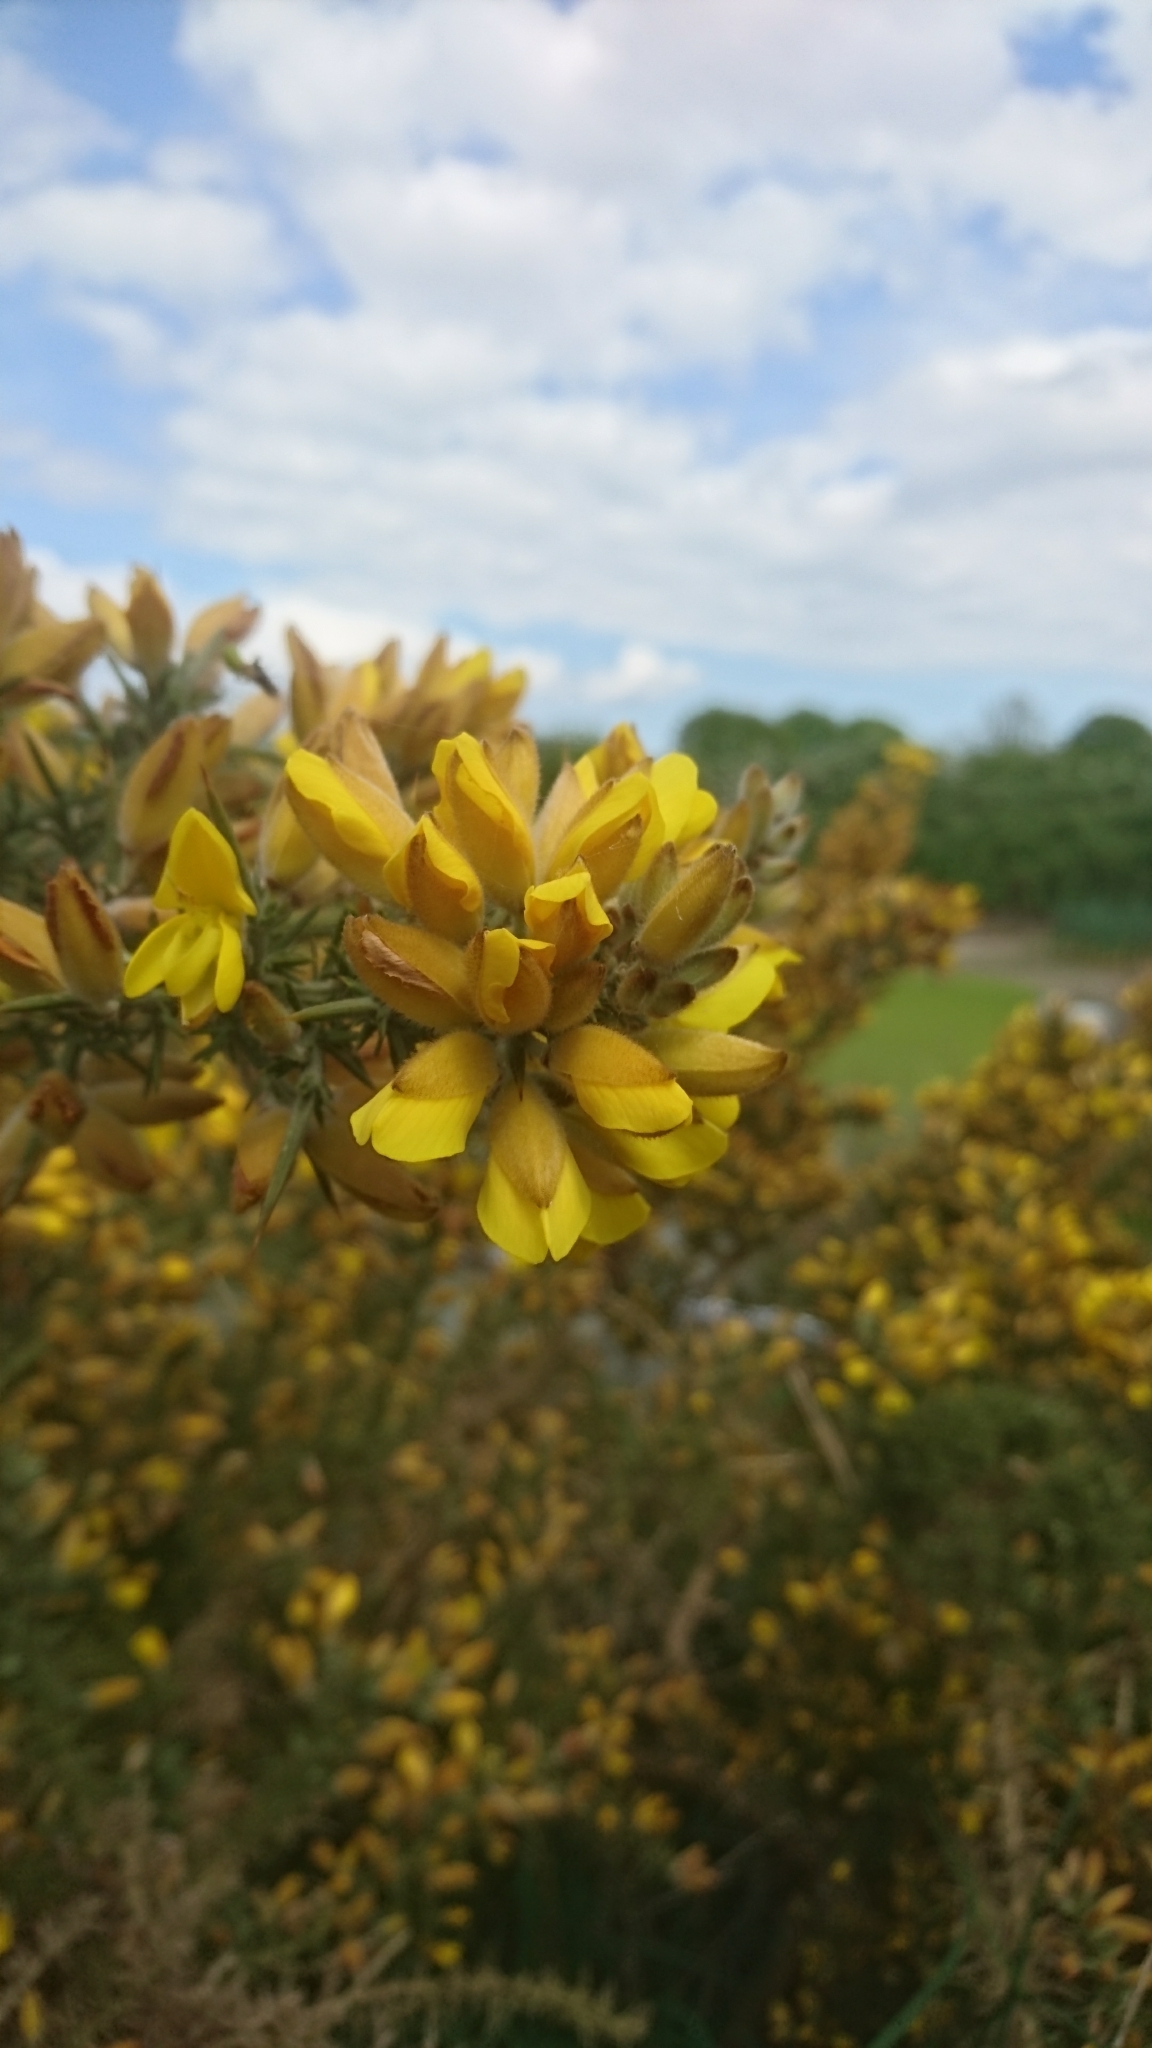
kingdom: Plantae
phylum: Tracheophyta
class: Magnoliopsida
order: Fabales
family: Fabaceae
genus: Ulex
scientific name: Ulex europaeus
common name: Common gorse
